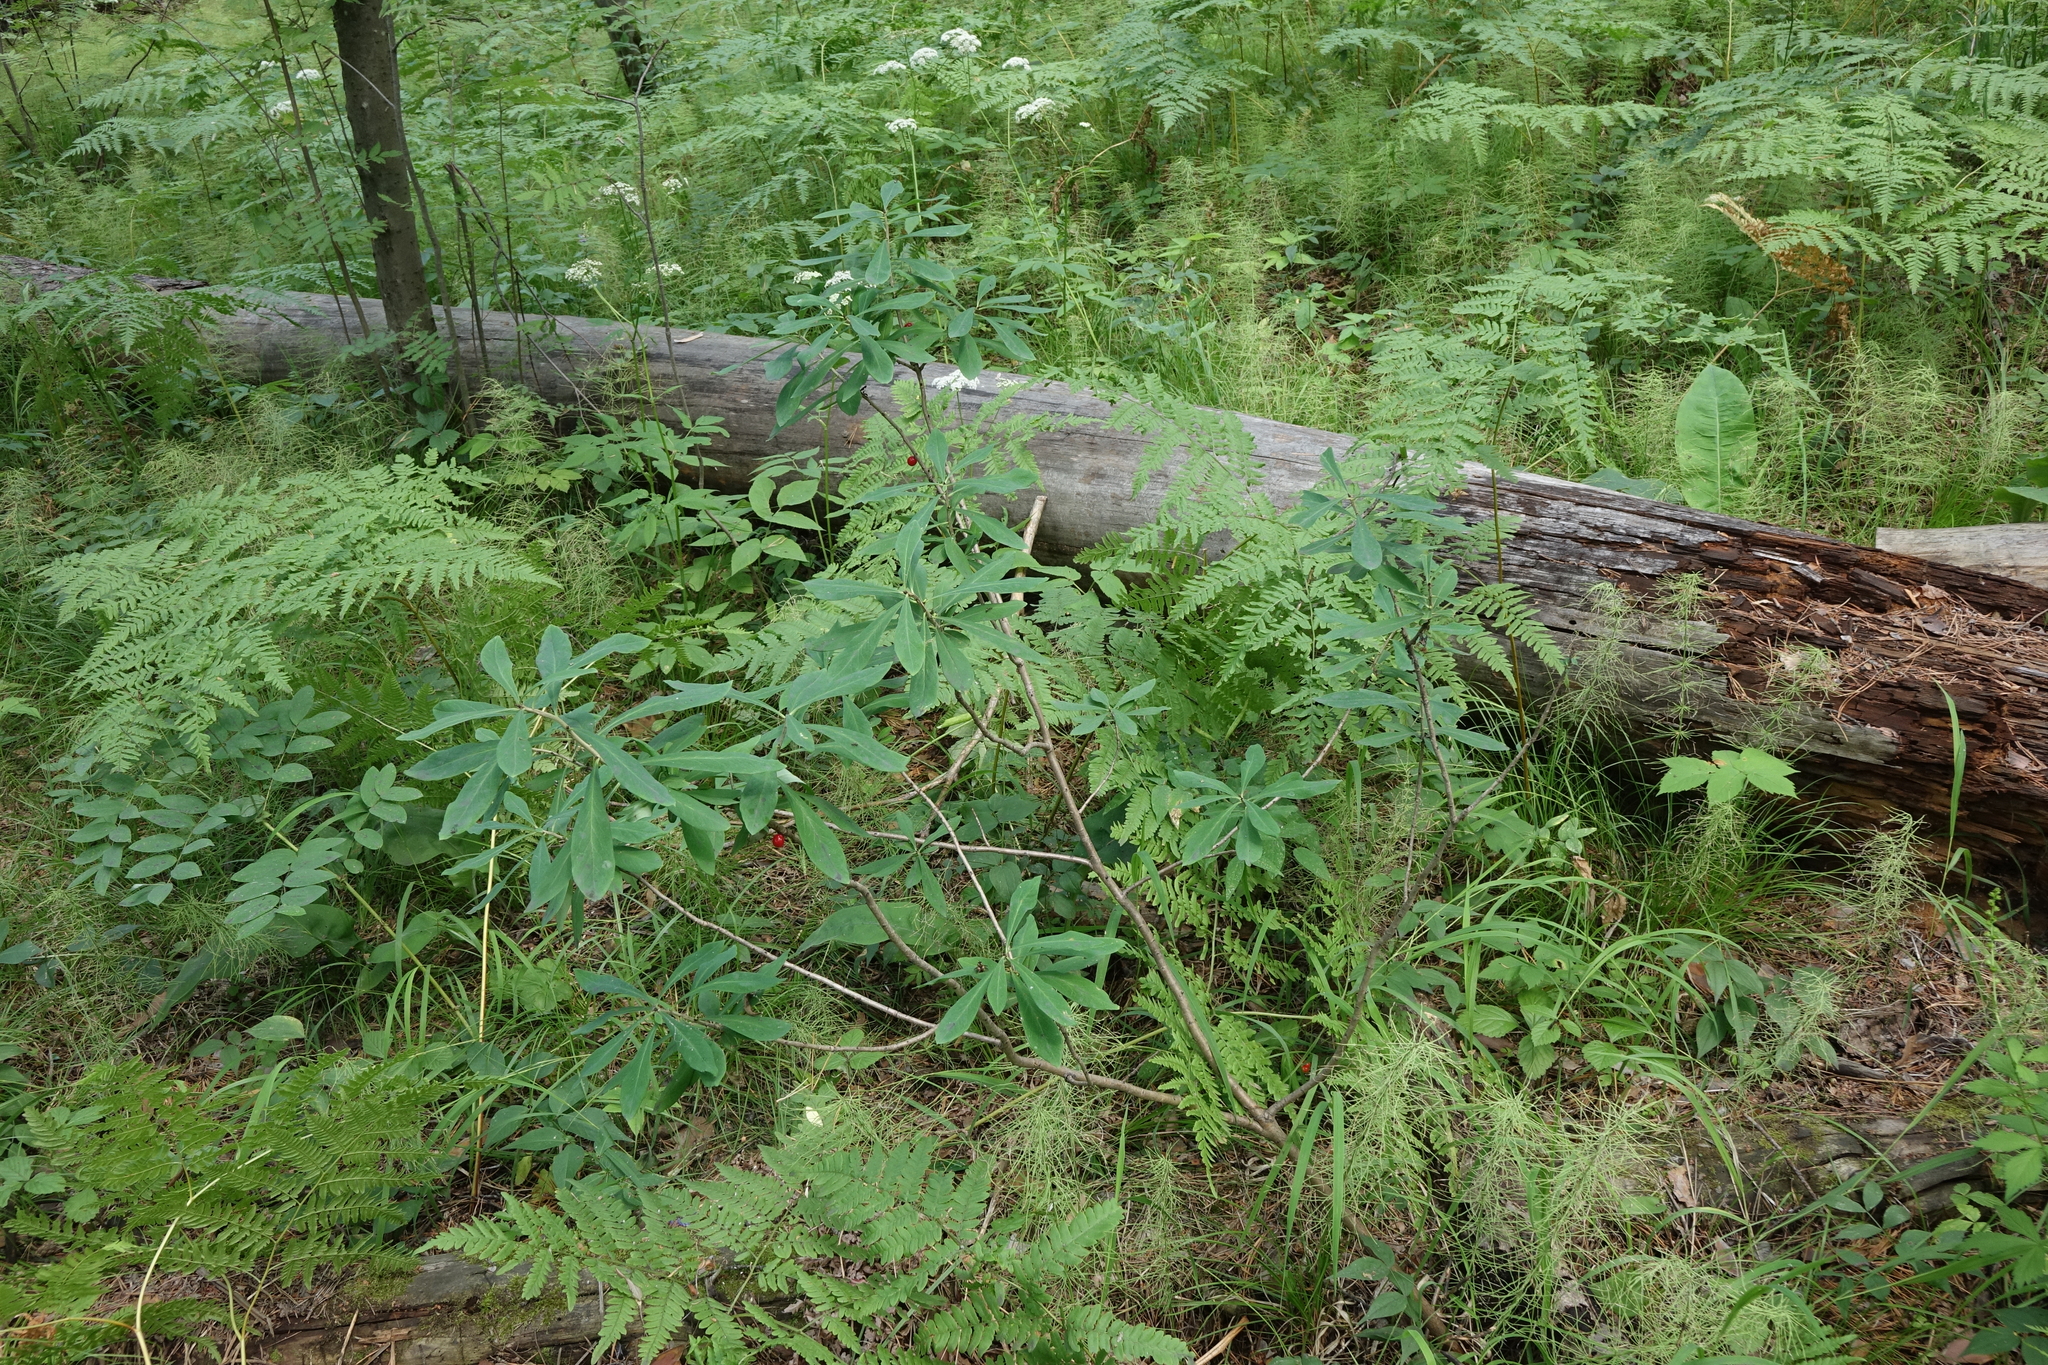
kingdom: Plantae
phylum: Tracheophyta
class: Magnoliopsida
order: Malvales
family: Thymelaeaceae
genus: Daphne
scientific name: Daphne mezereum
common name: Mezereon
